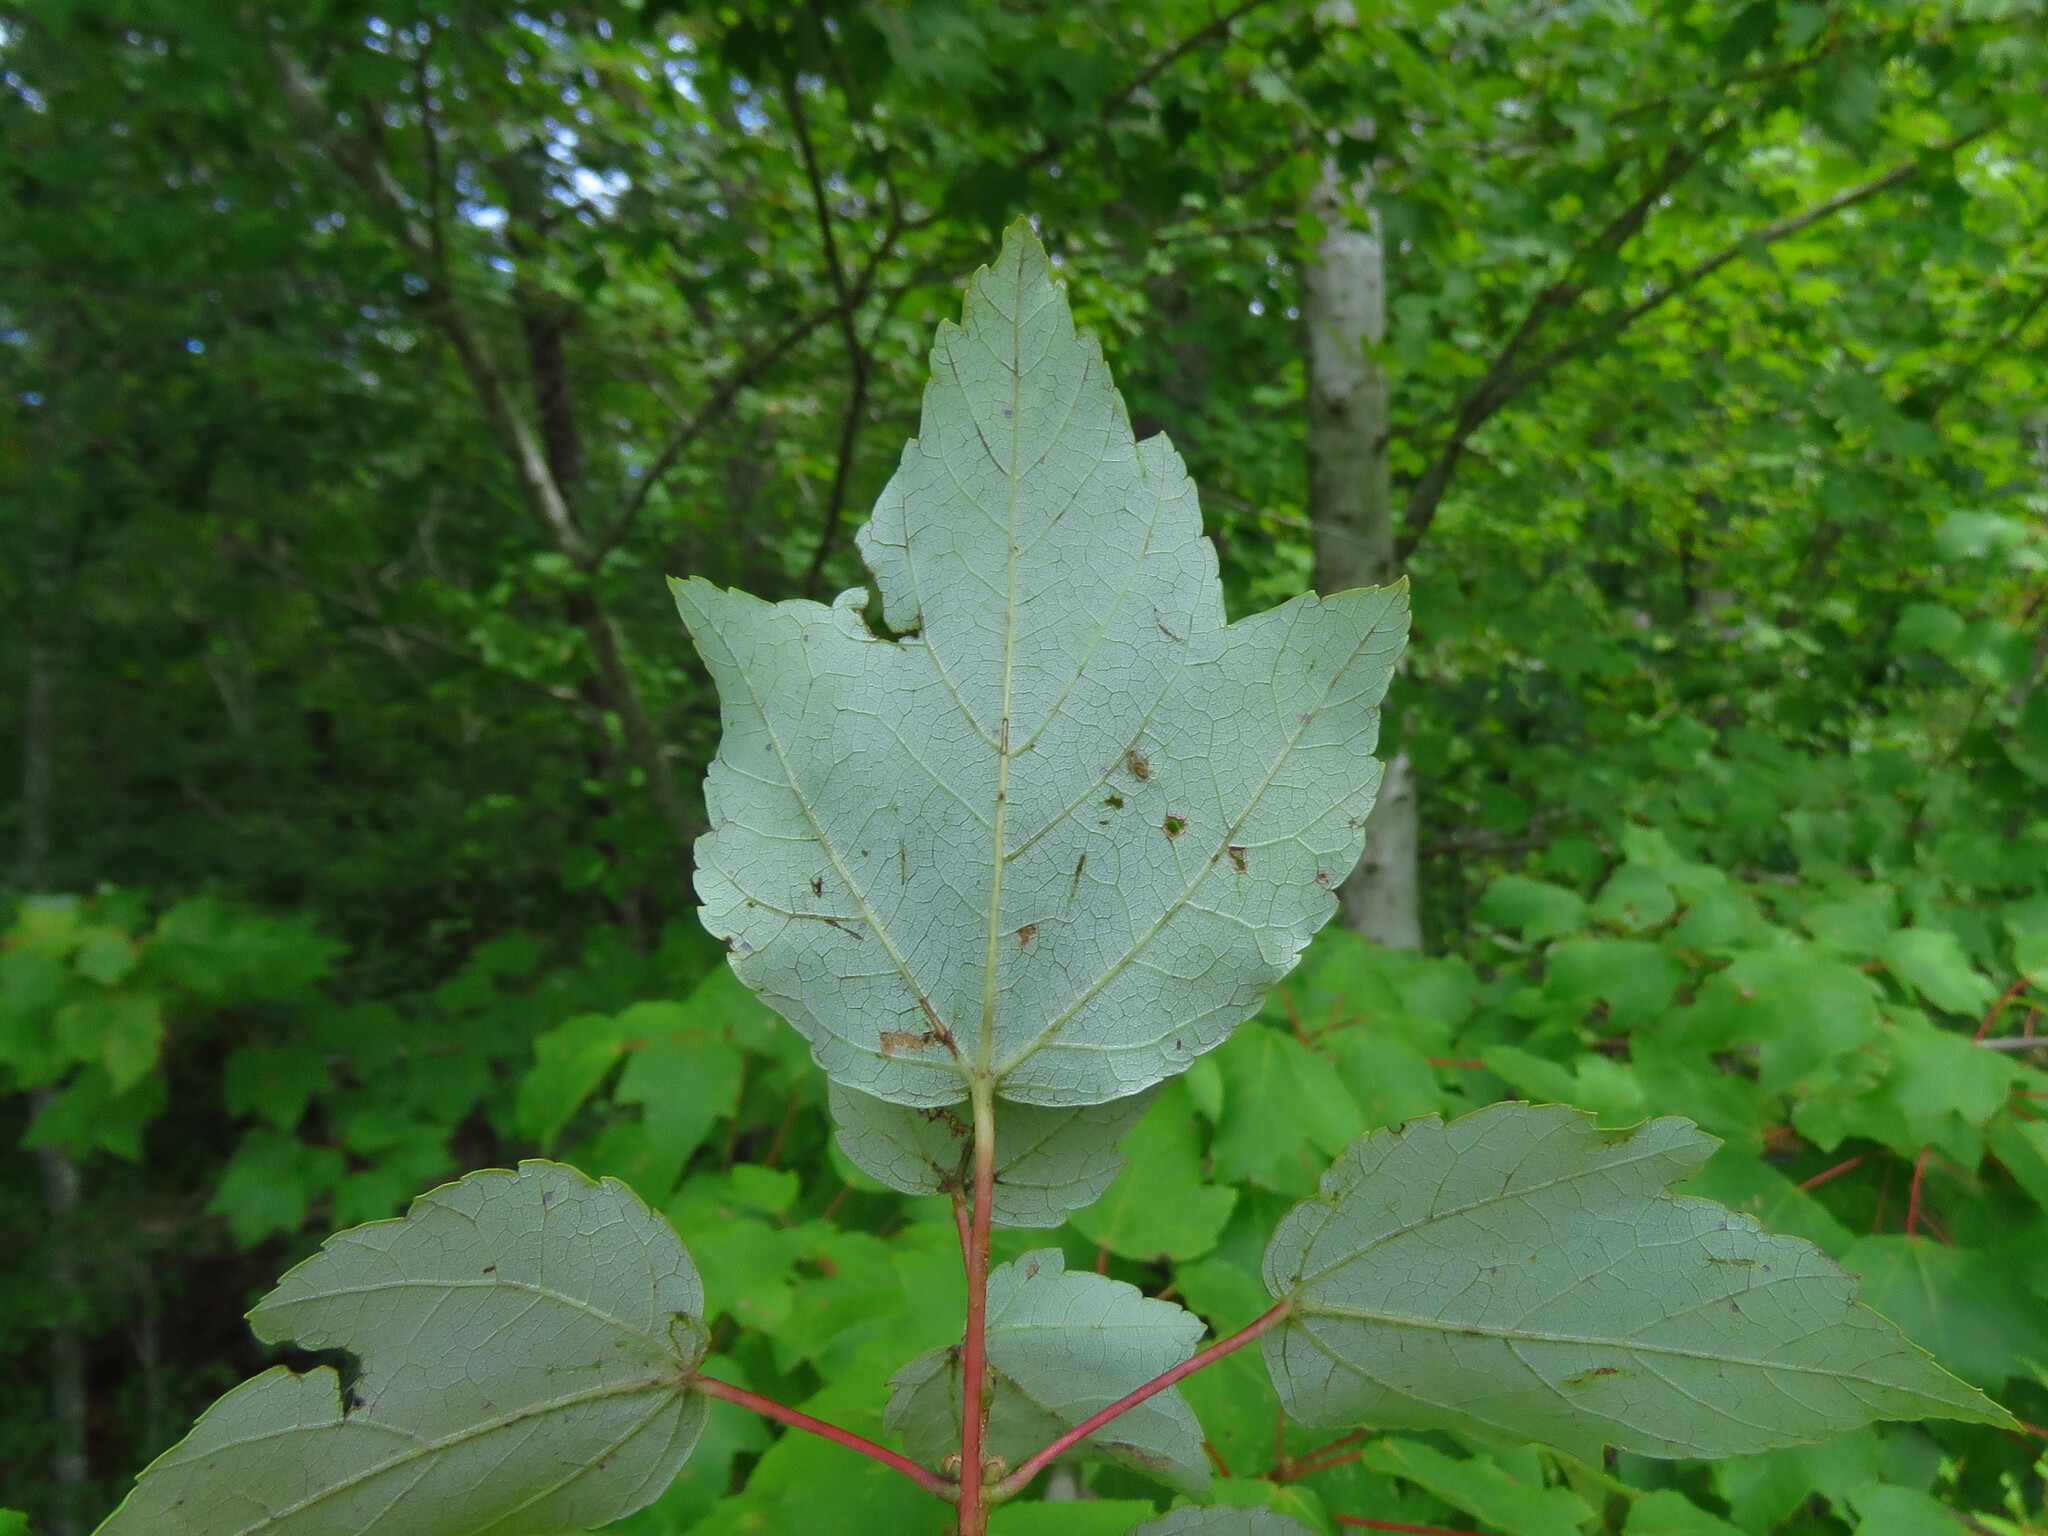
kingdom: Plantae
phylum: Tracheophyta
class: Magnoliopsida
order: Sapindales
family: Sapindaceae
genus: Acer
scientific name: Acer rubrum
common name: Red maple
